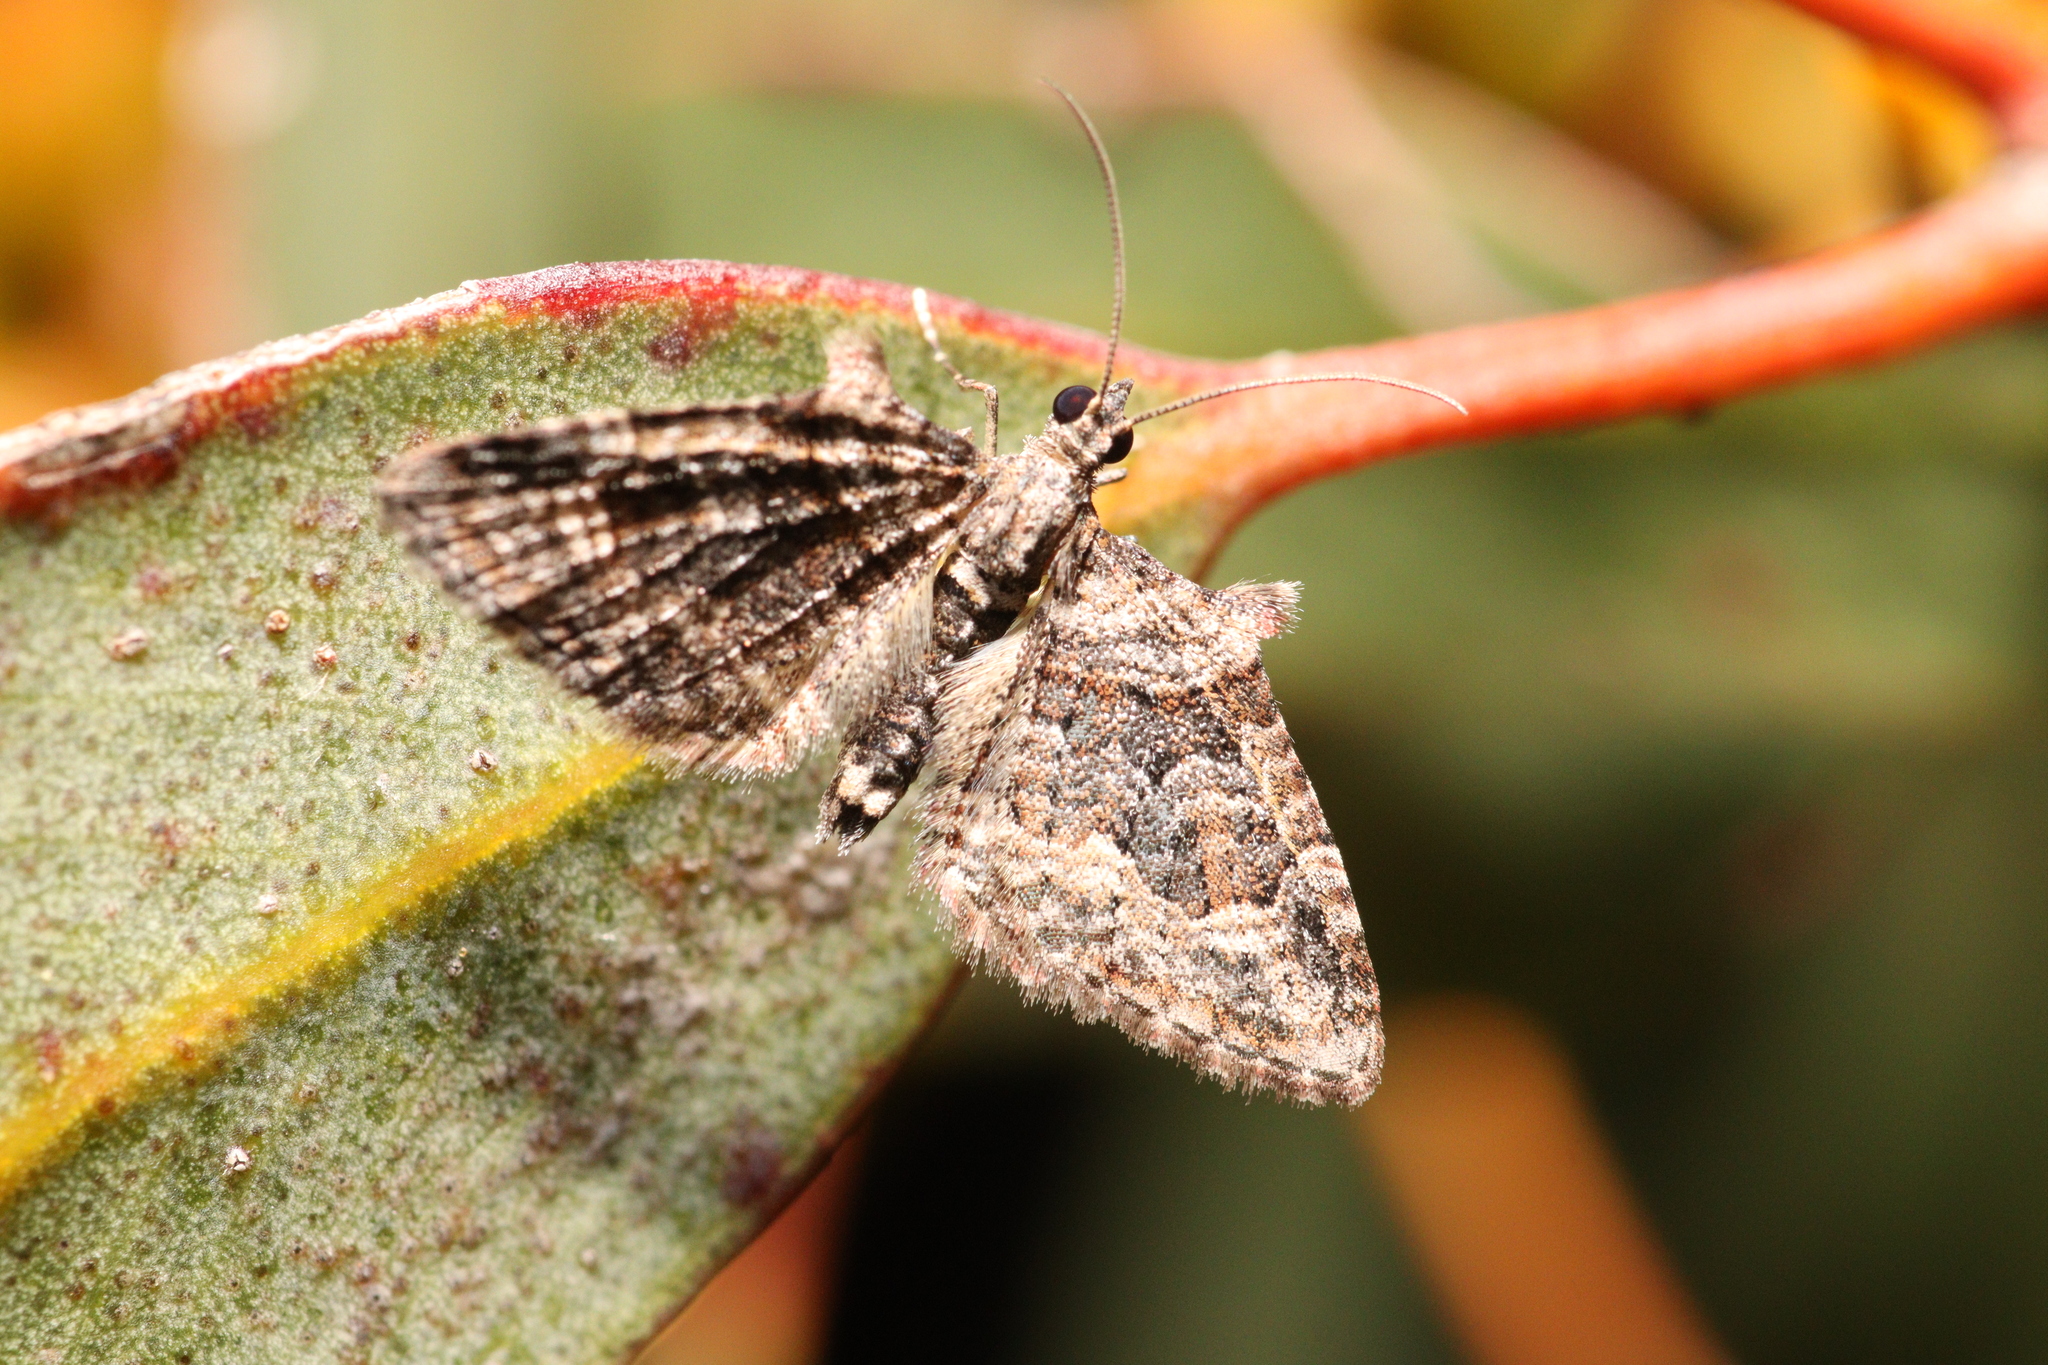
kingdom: Animalia
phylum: Arthropoda
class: Insecta
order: Lepidoptera
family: Geometridae
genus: Phrissogonus
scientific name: Phrissogonus laticostata
